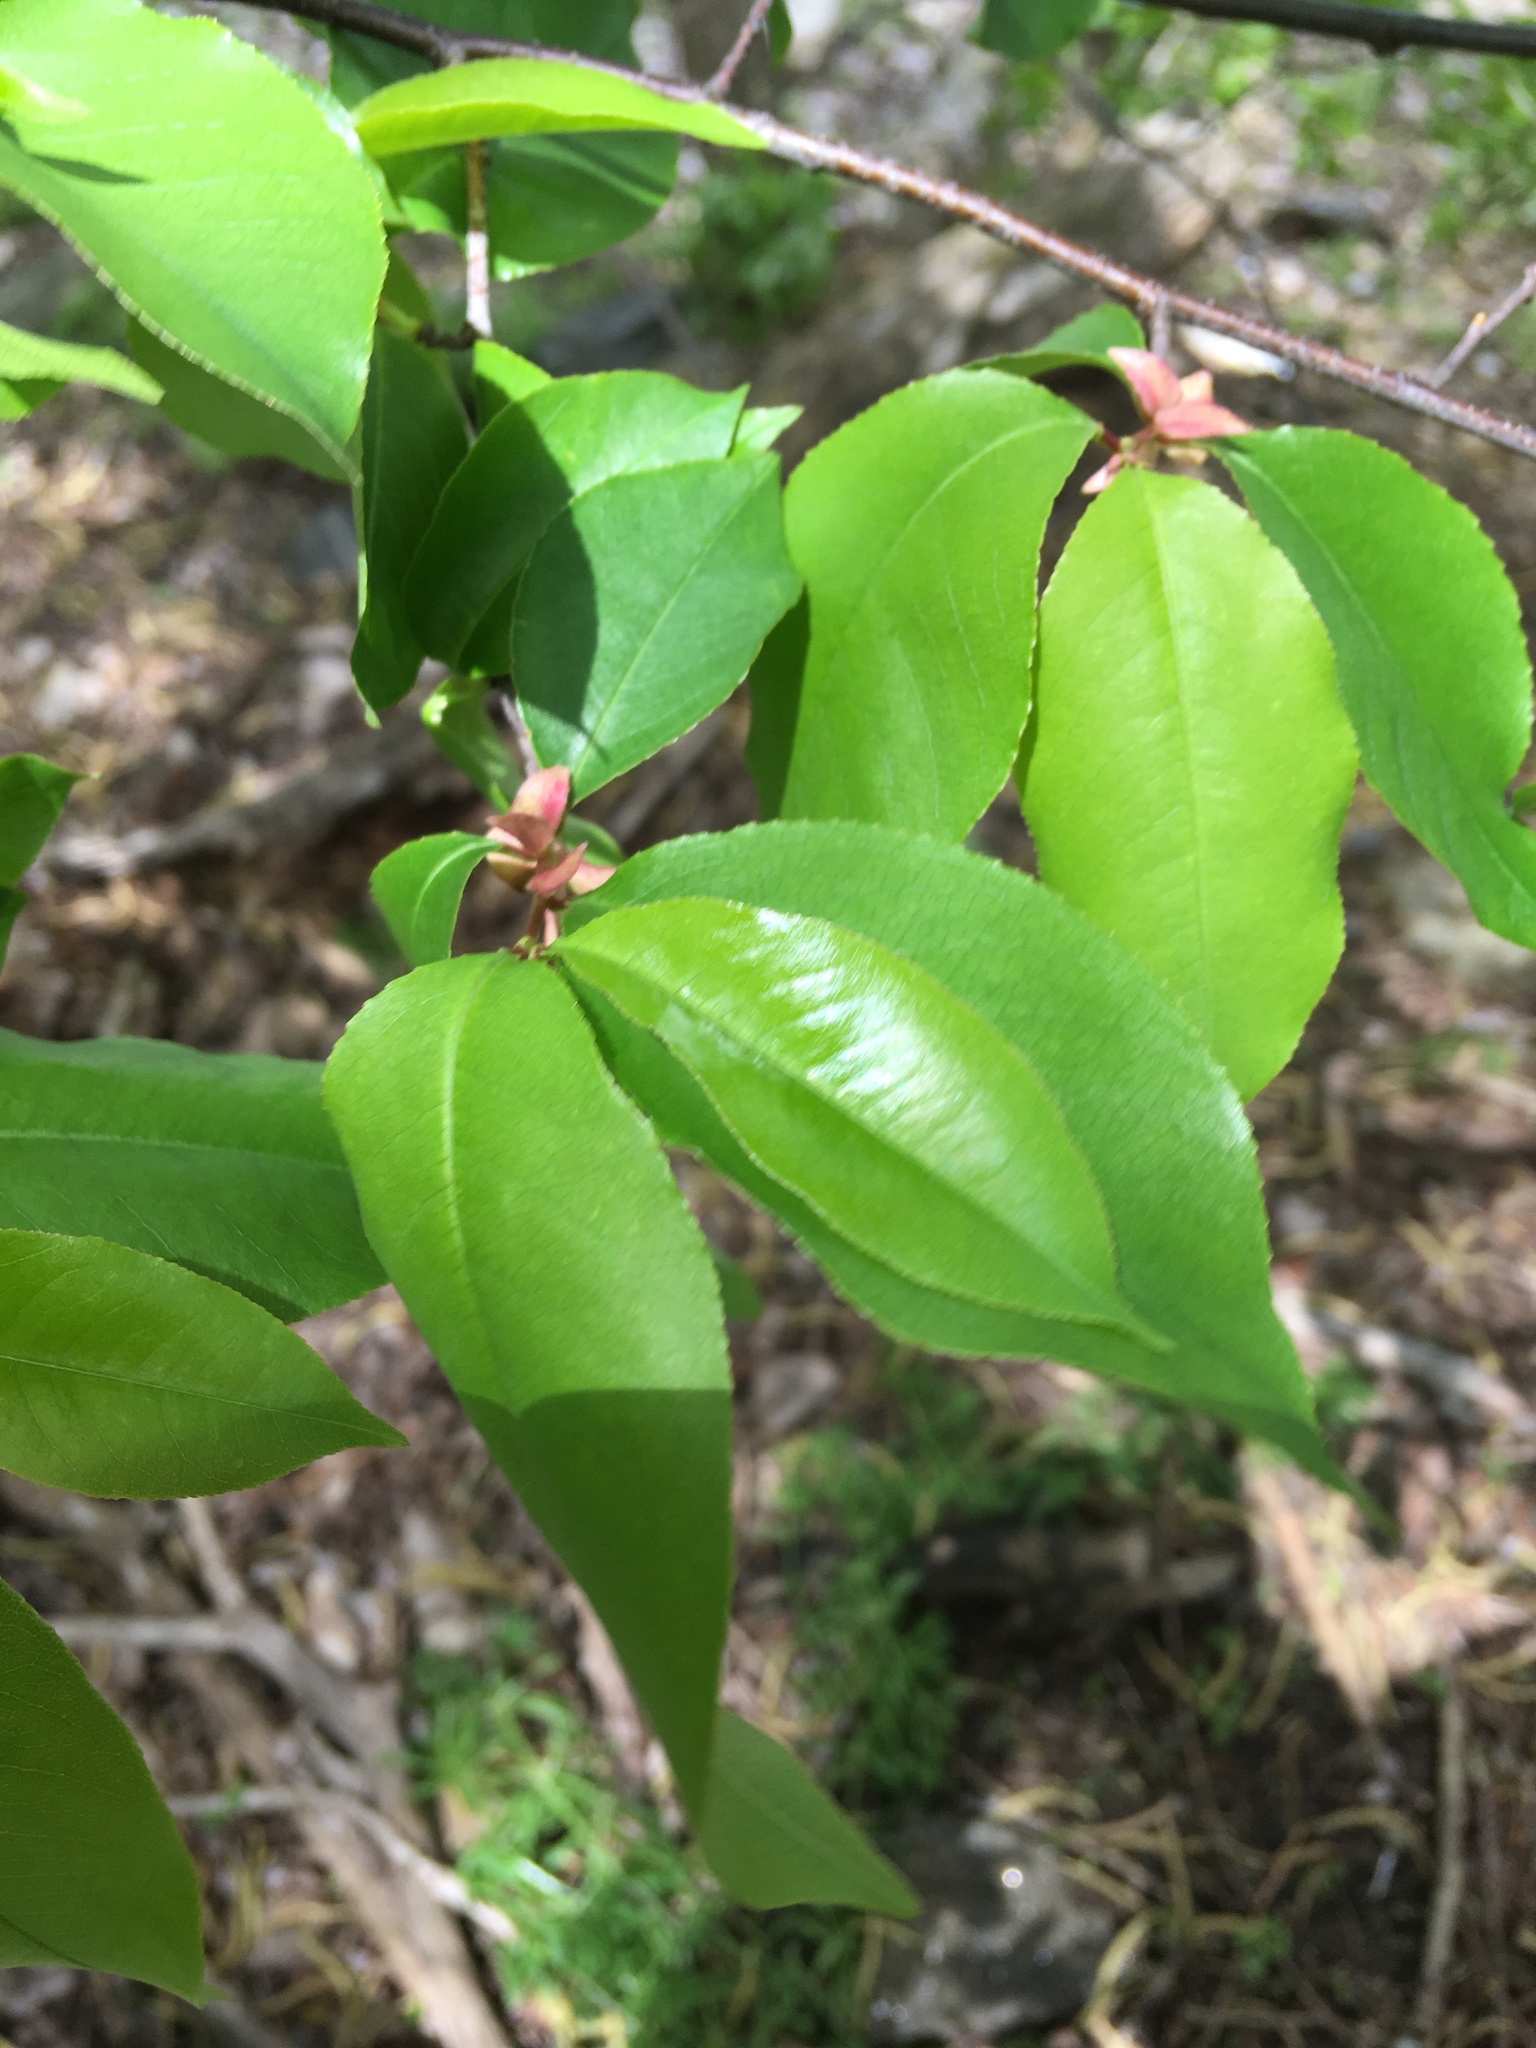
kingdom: Plantae
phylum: Tracheophyta
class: Magnoliopsida
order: Rosales
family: Rosaceae
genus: Prunus
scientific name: Prunus serotina
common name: Black cherry
